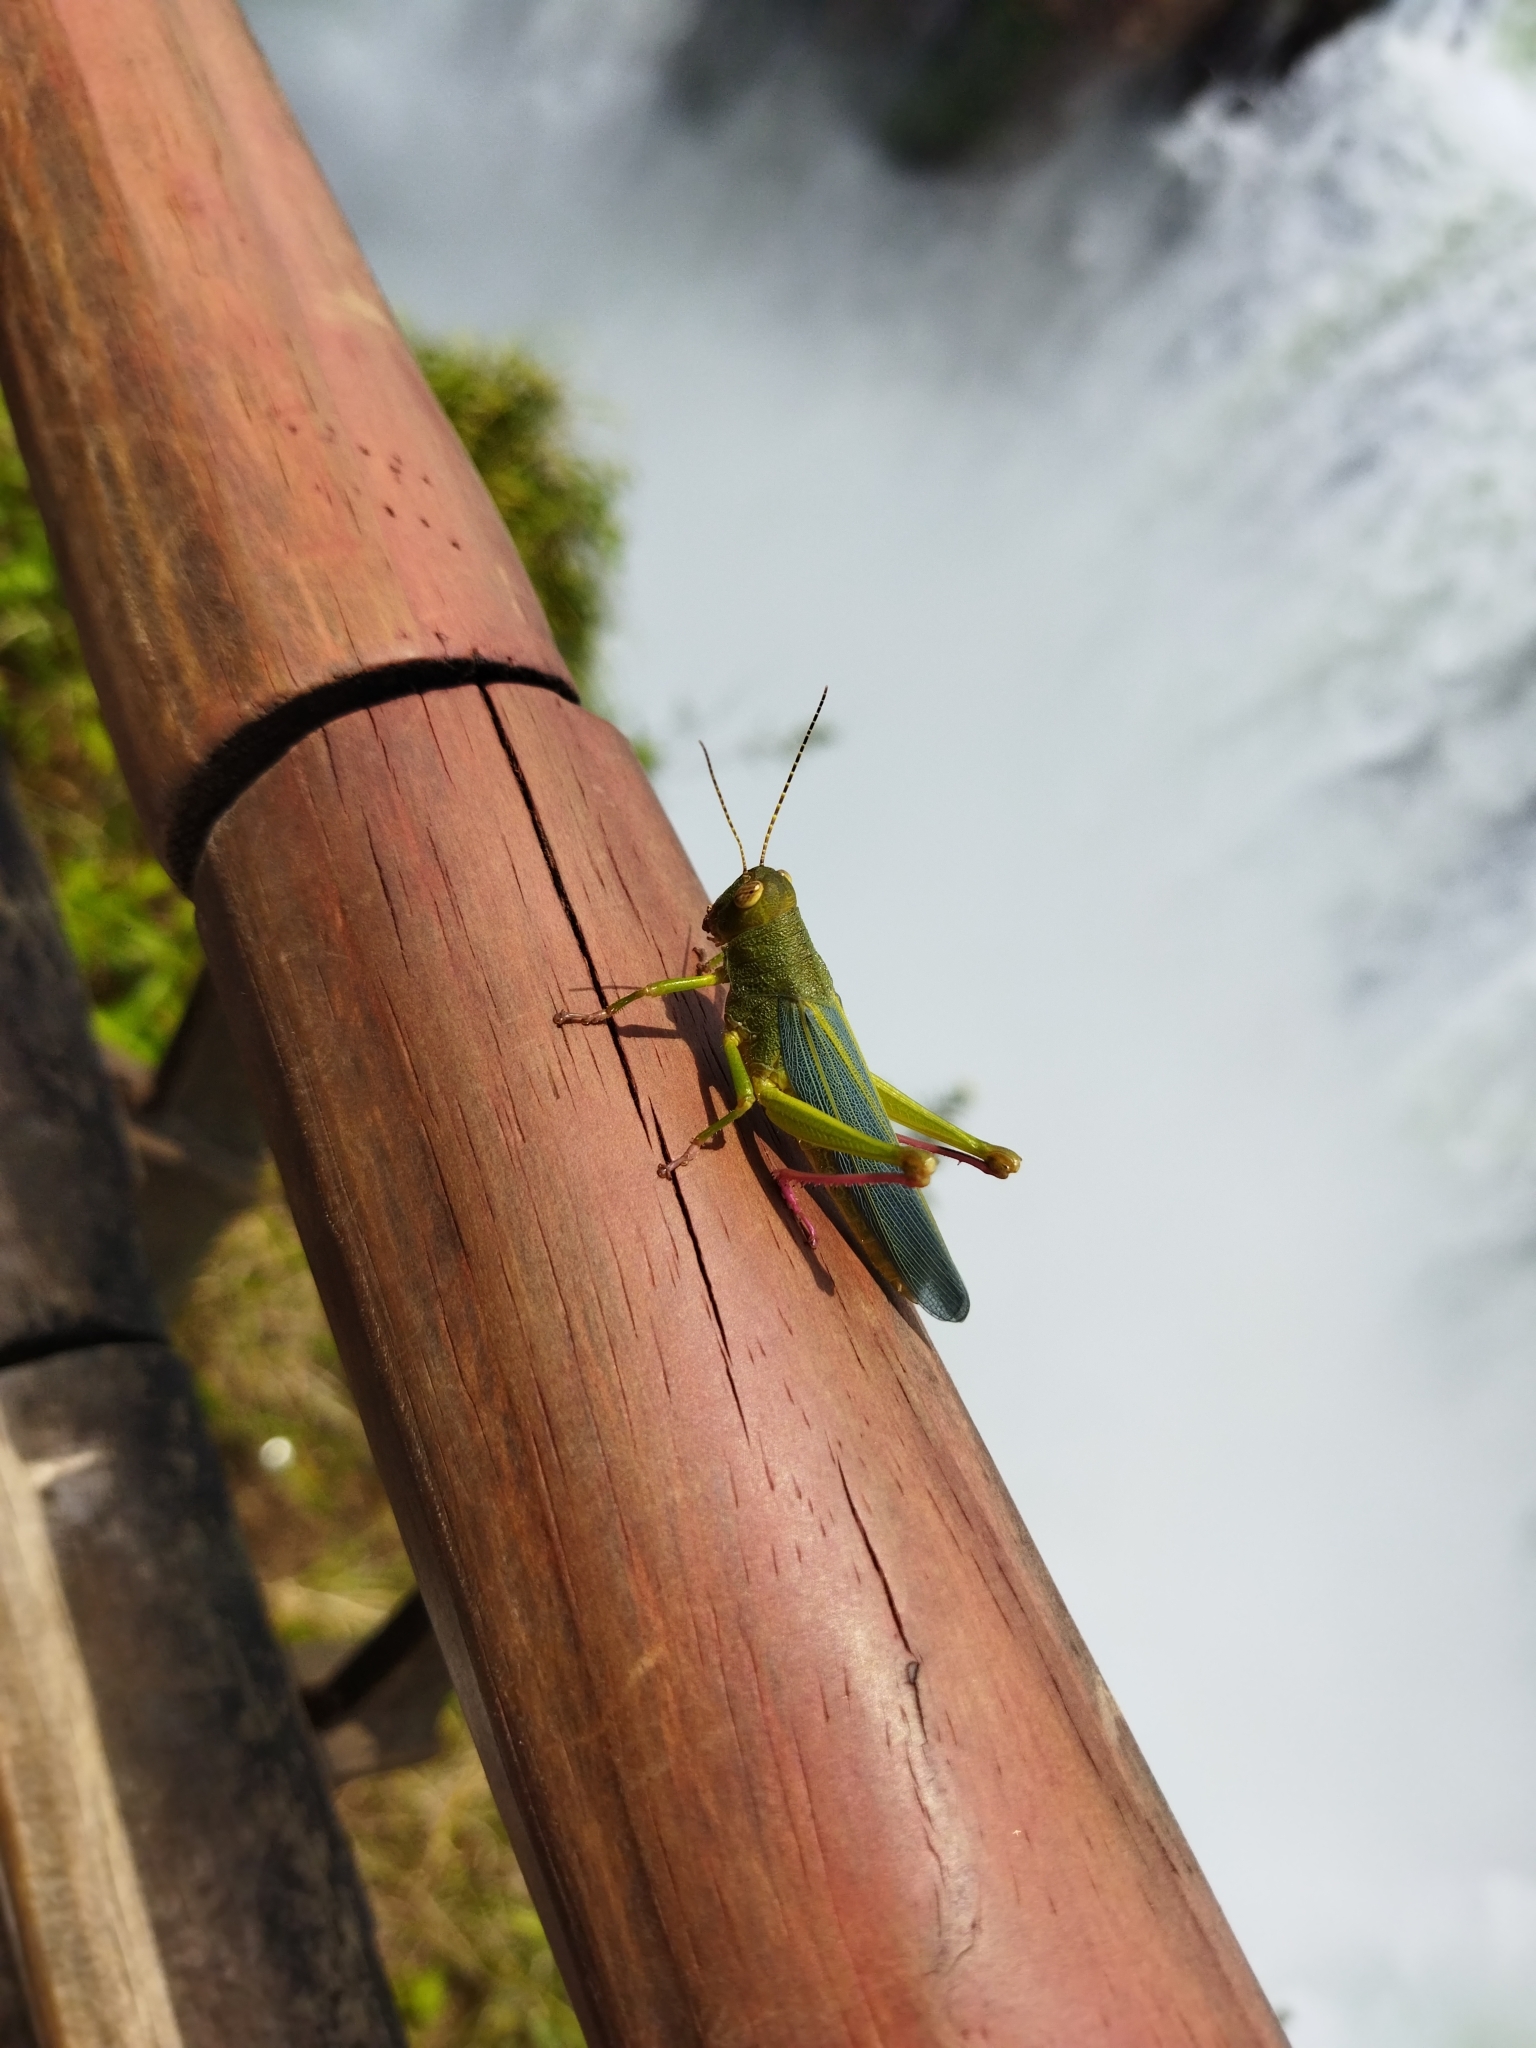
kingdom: Animalia
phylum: Arthropoda
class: Insecta
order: Orthoptera
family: Romaleidae
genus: Zoniopoda
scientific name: Zoniopoda hempeli
